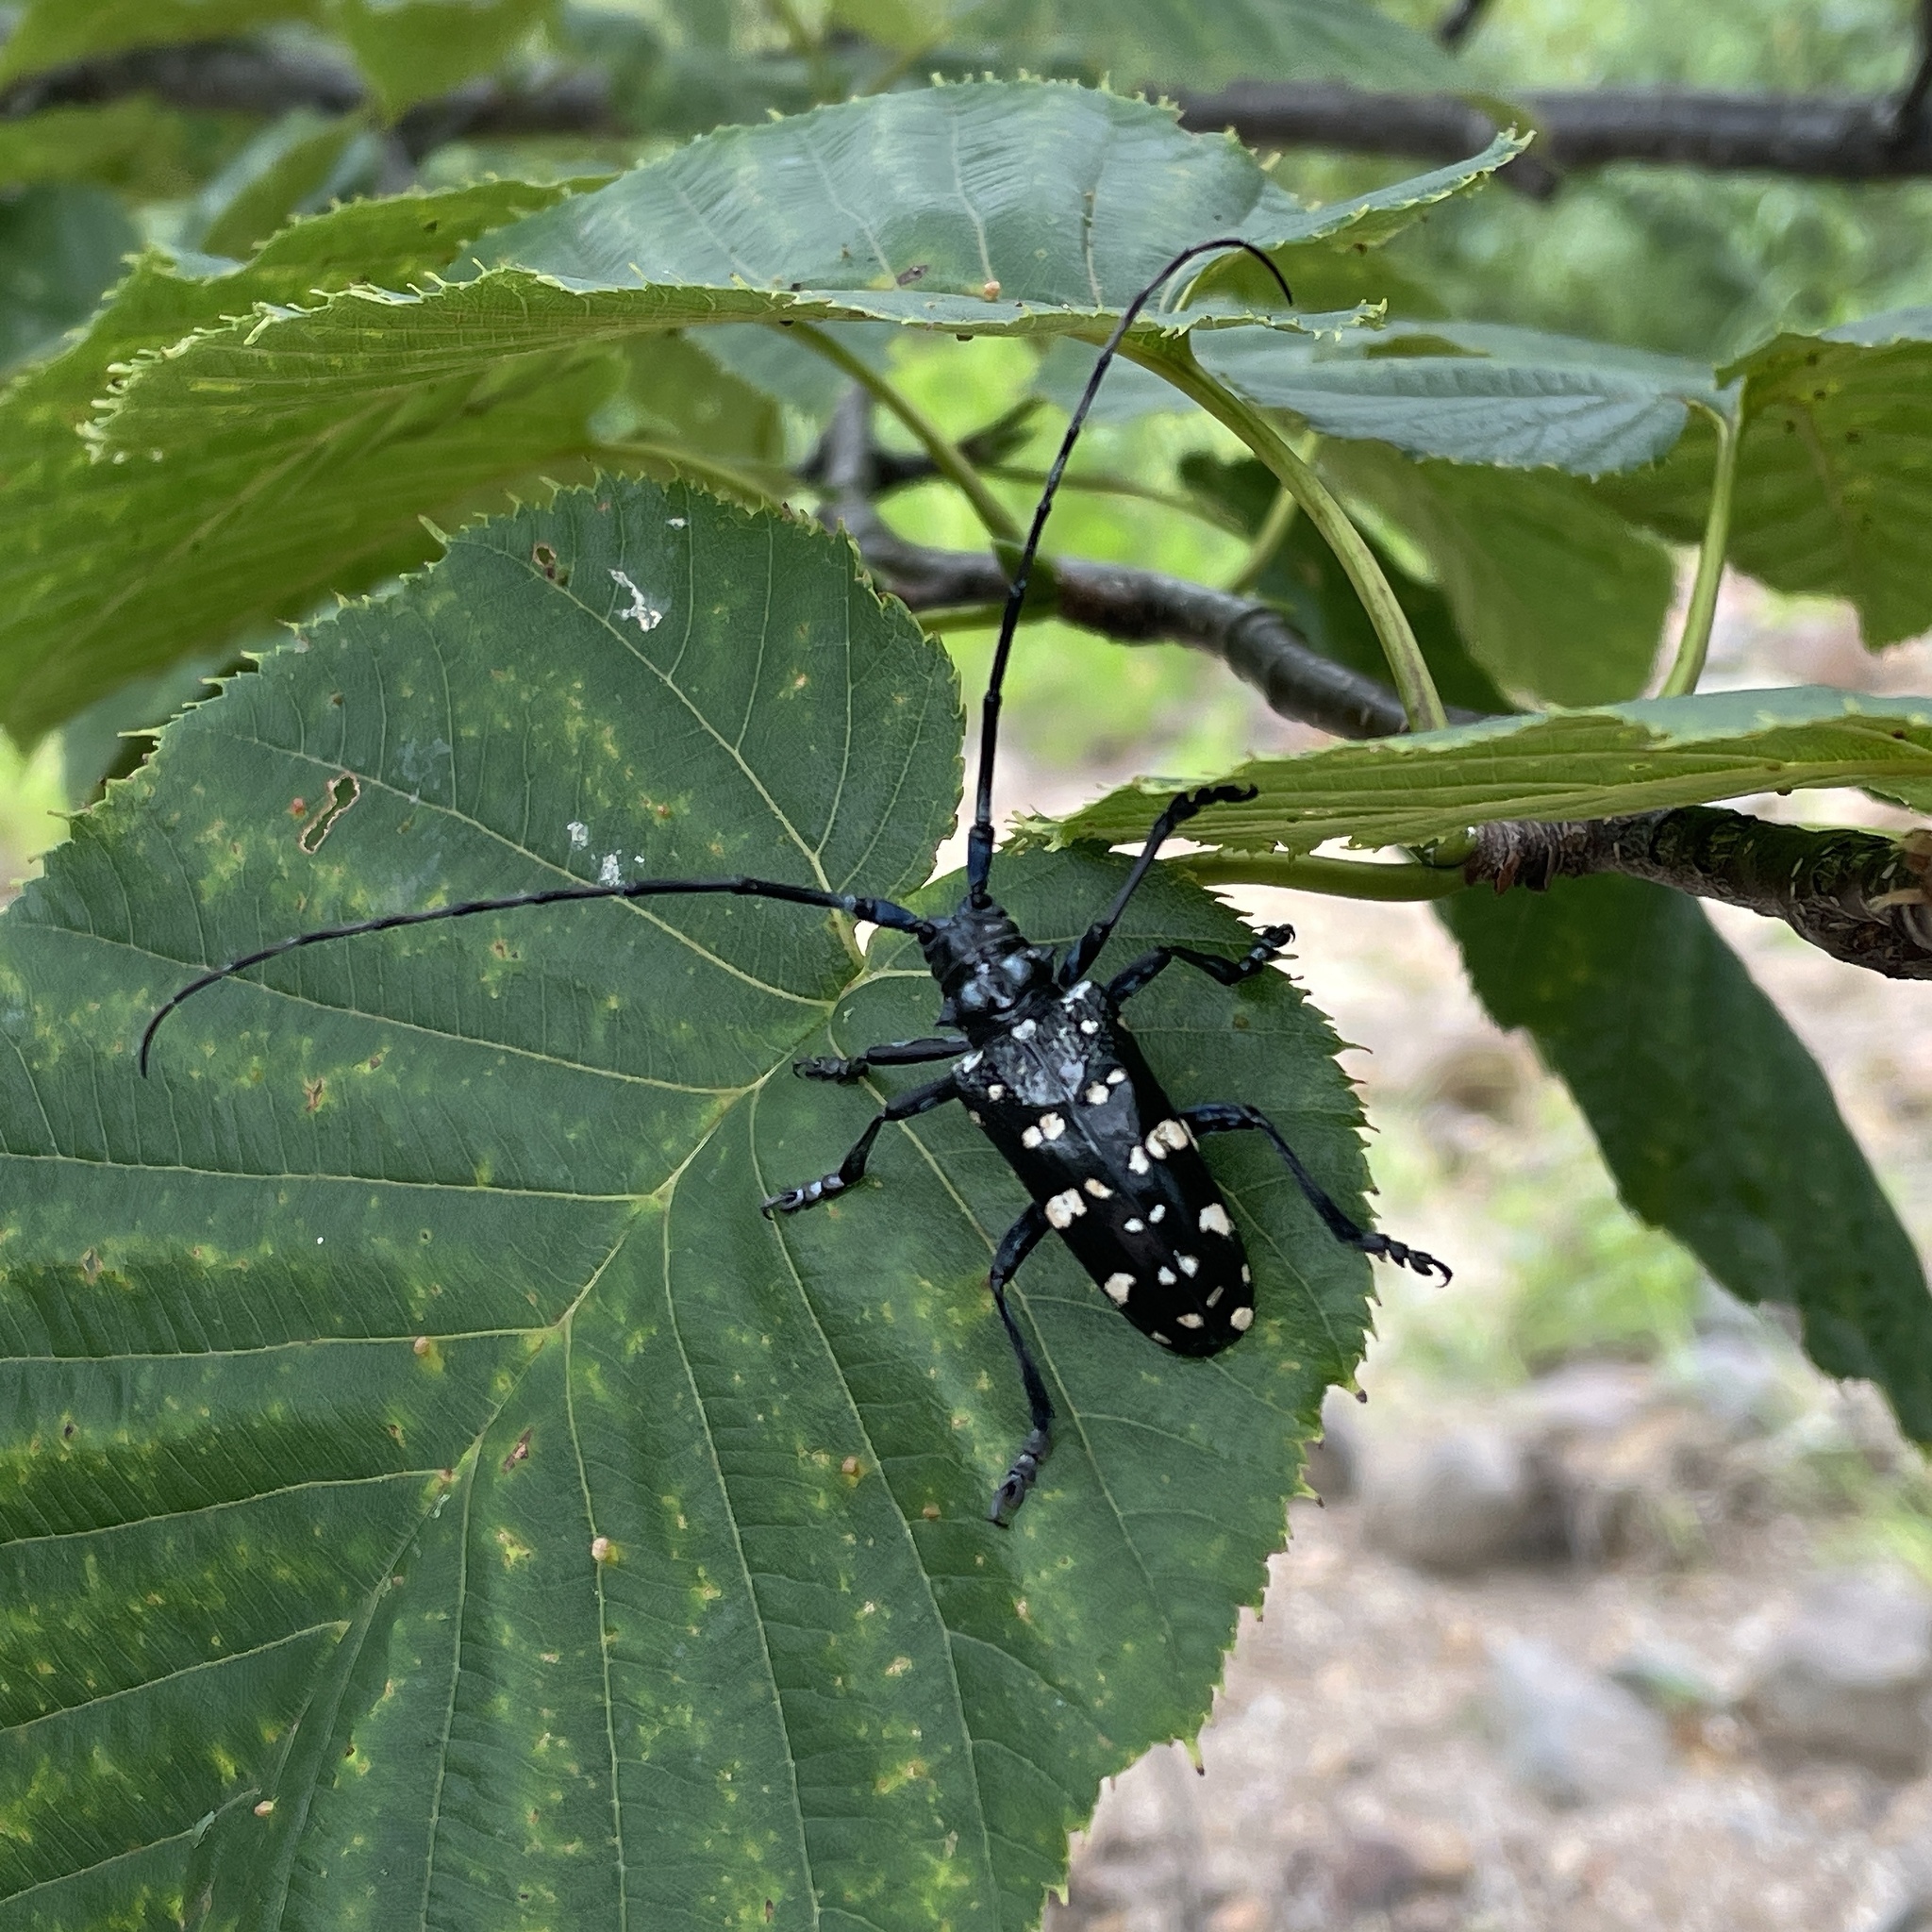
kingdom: Animalia
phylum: Arthropoda
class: Insecta
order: Coleoptera
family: Cerambycidae
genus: Anoplophora
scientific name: Anoplophora chinensis
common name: Citrus longhorned beetle
